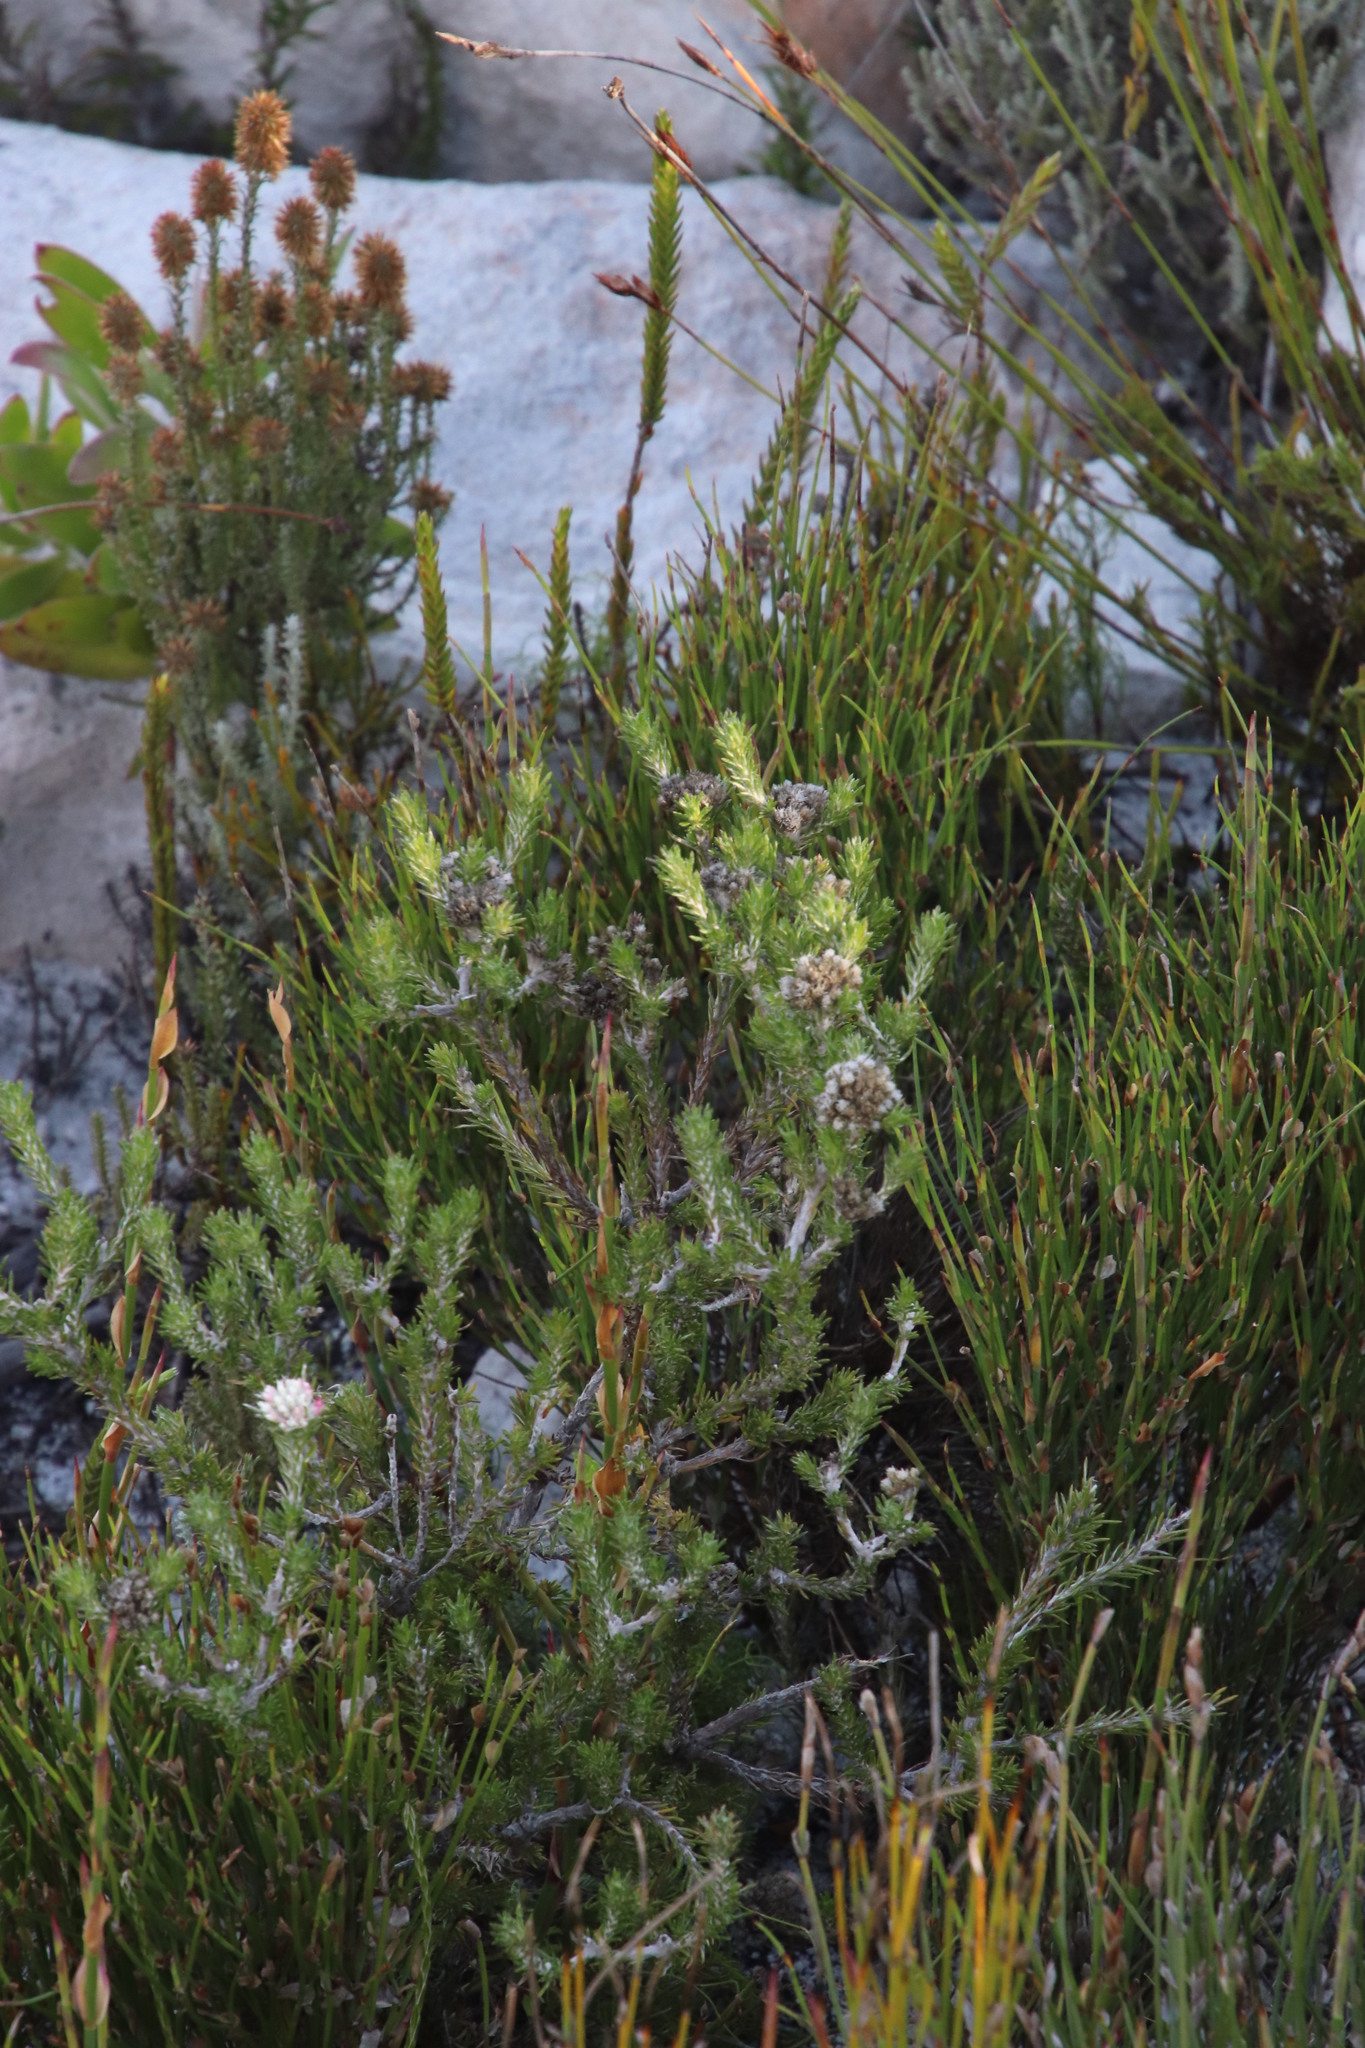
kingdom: Plantae
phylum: Tracheophyta
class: Magnoliopsida
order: Asterales
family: Asteraceae
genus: Metalasia
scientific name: Metalasia compacta
